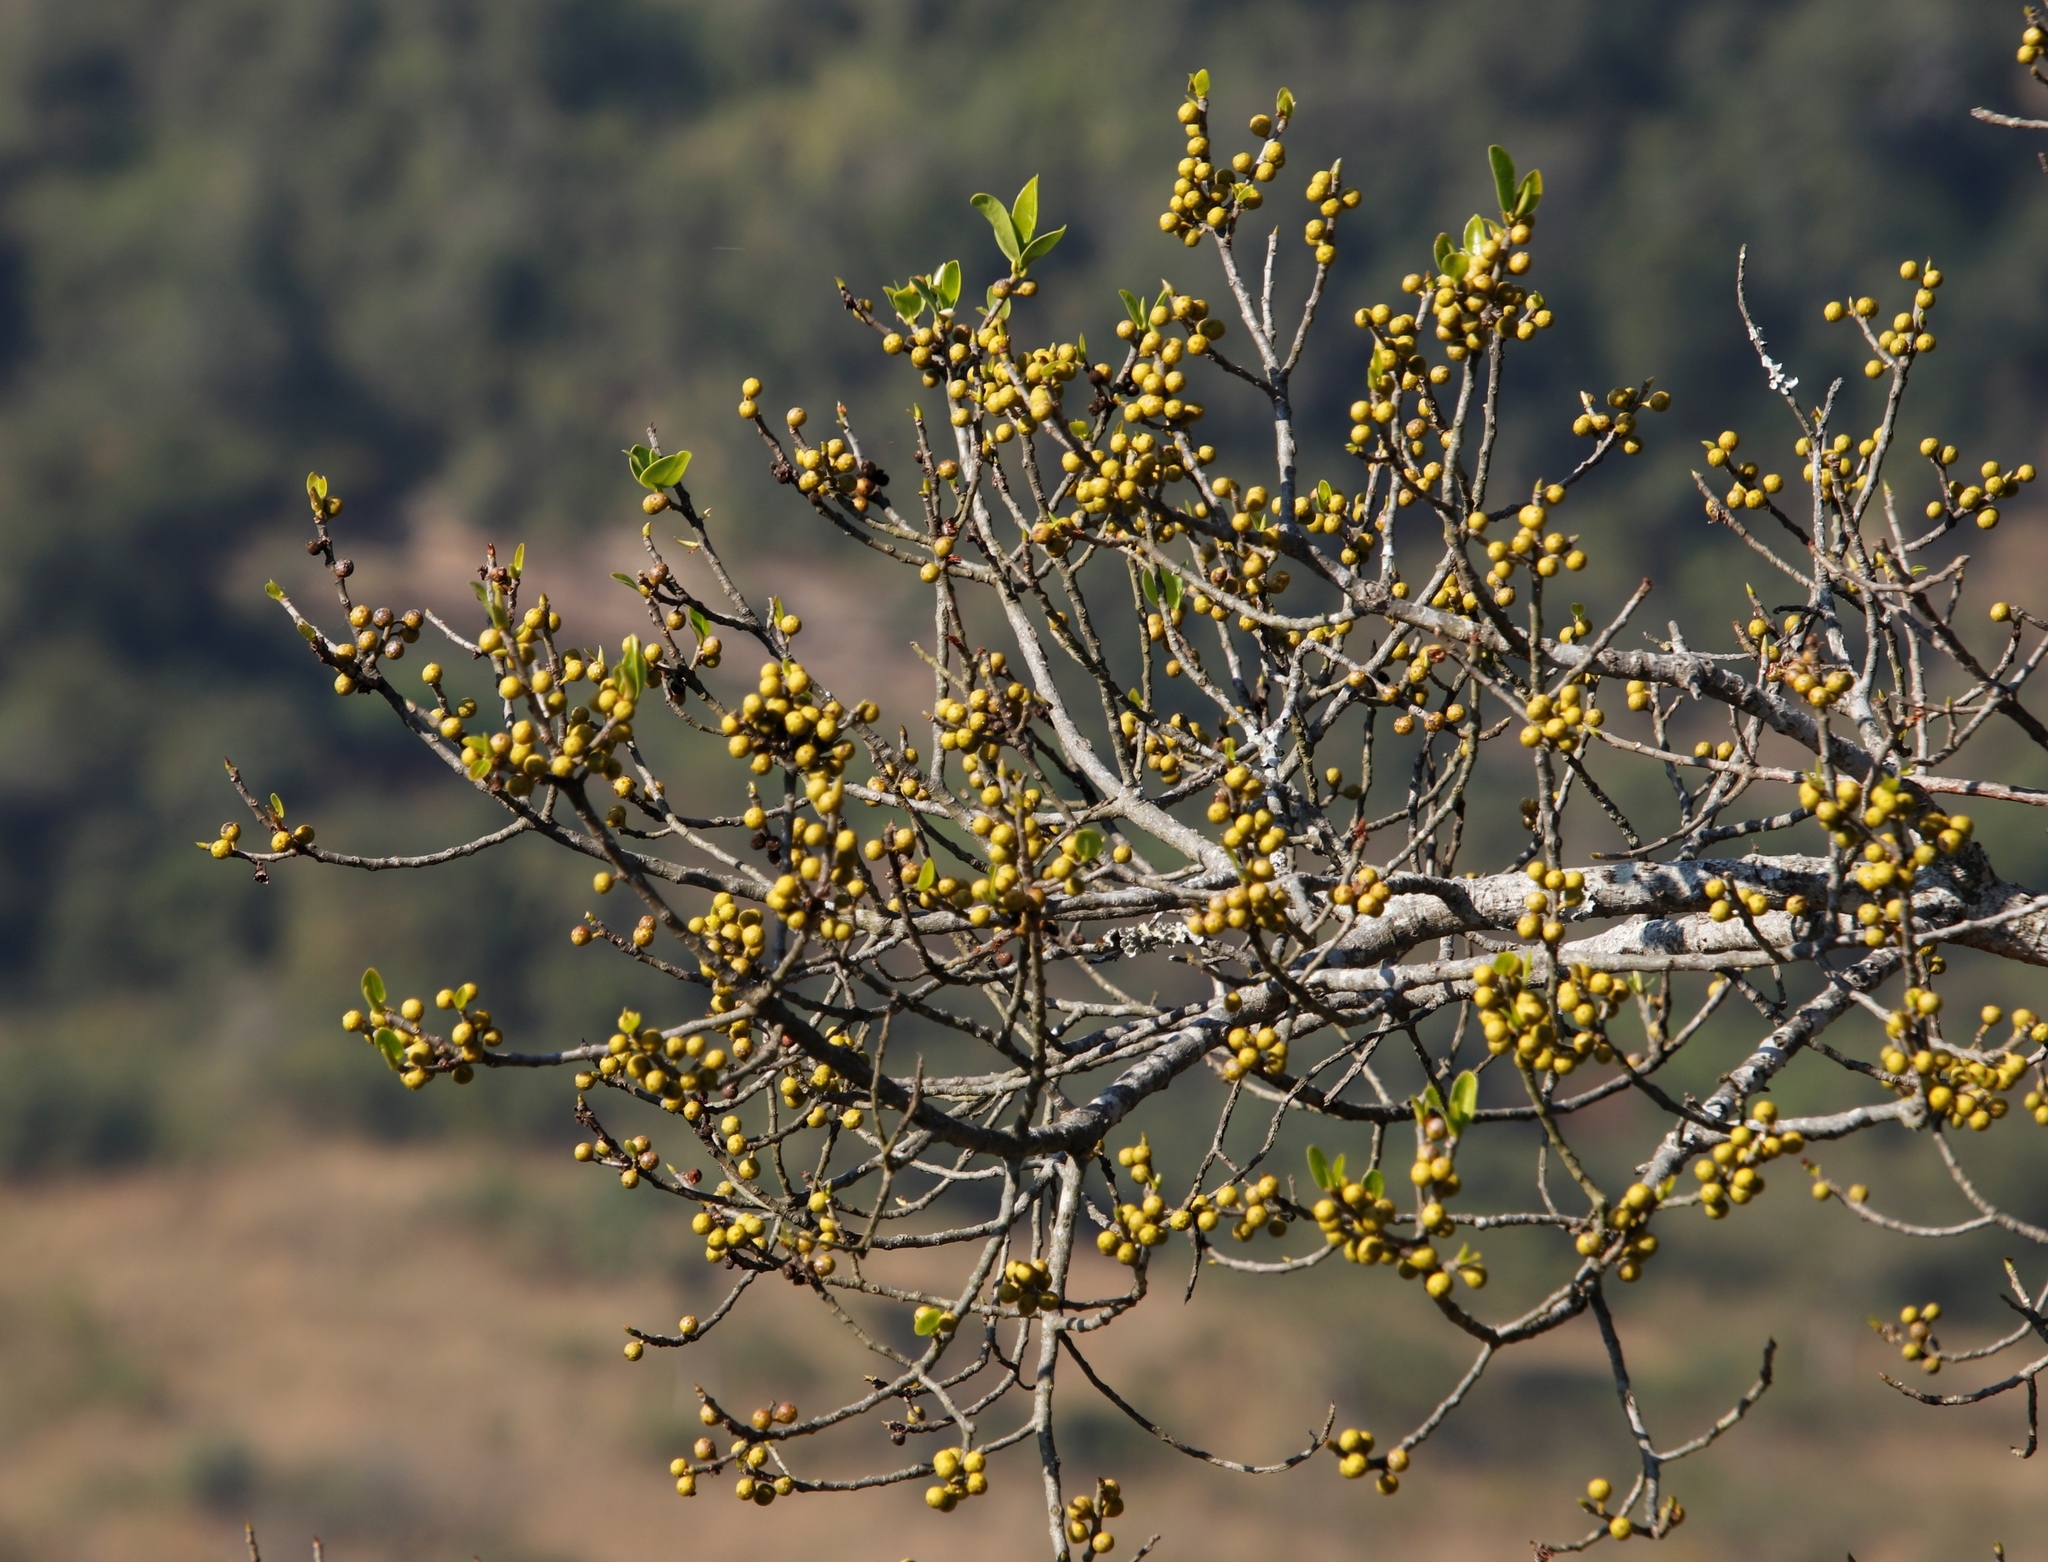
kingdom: Plantae
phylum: Tracheophyta
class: Magnoliopsida
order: Rosales
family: Moraceae
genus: Ficus
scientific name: Ficus thonningii
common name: Fig
